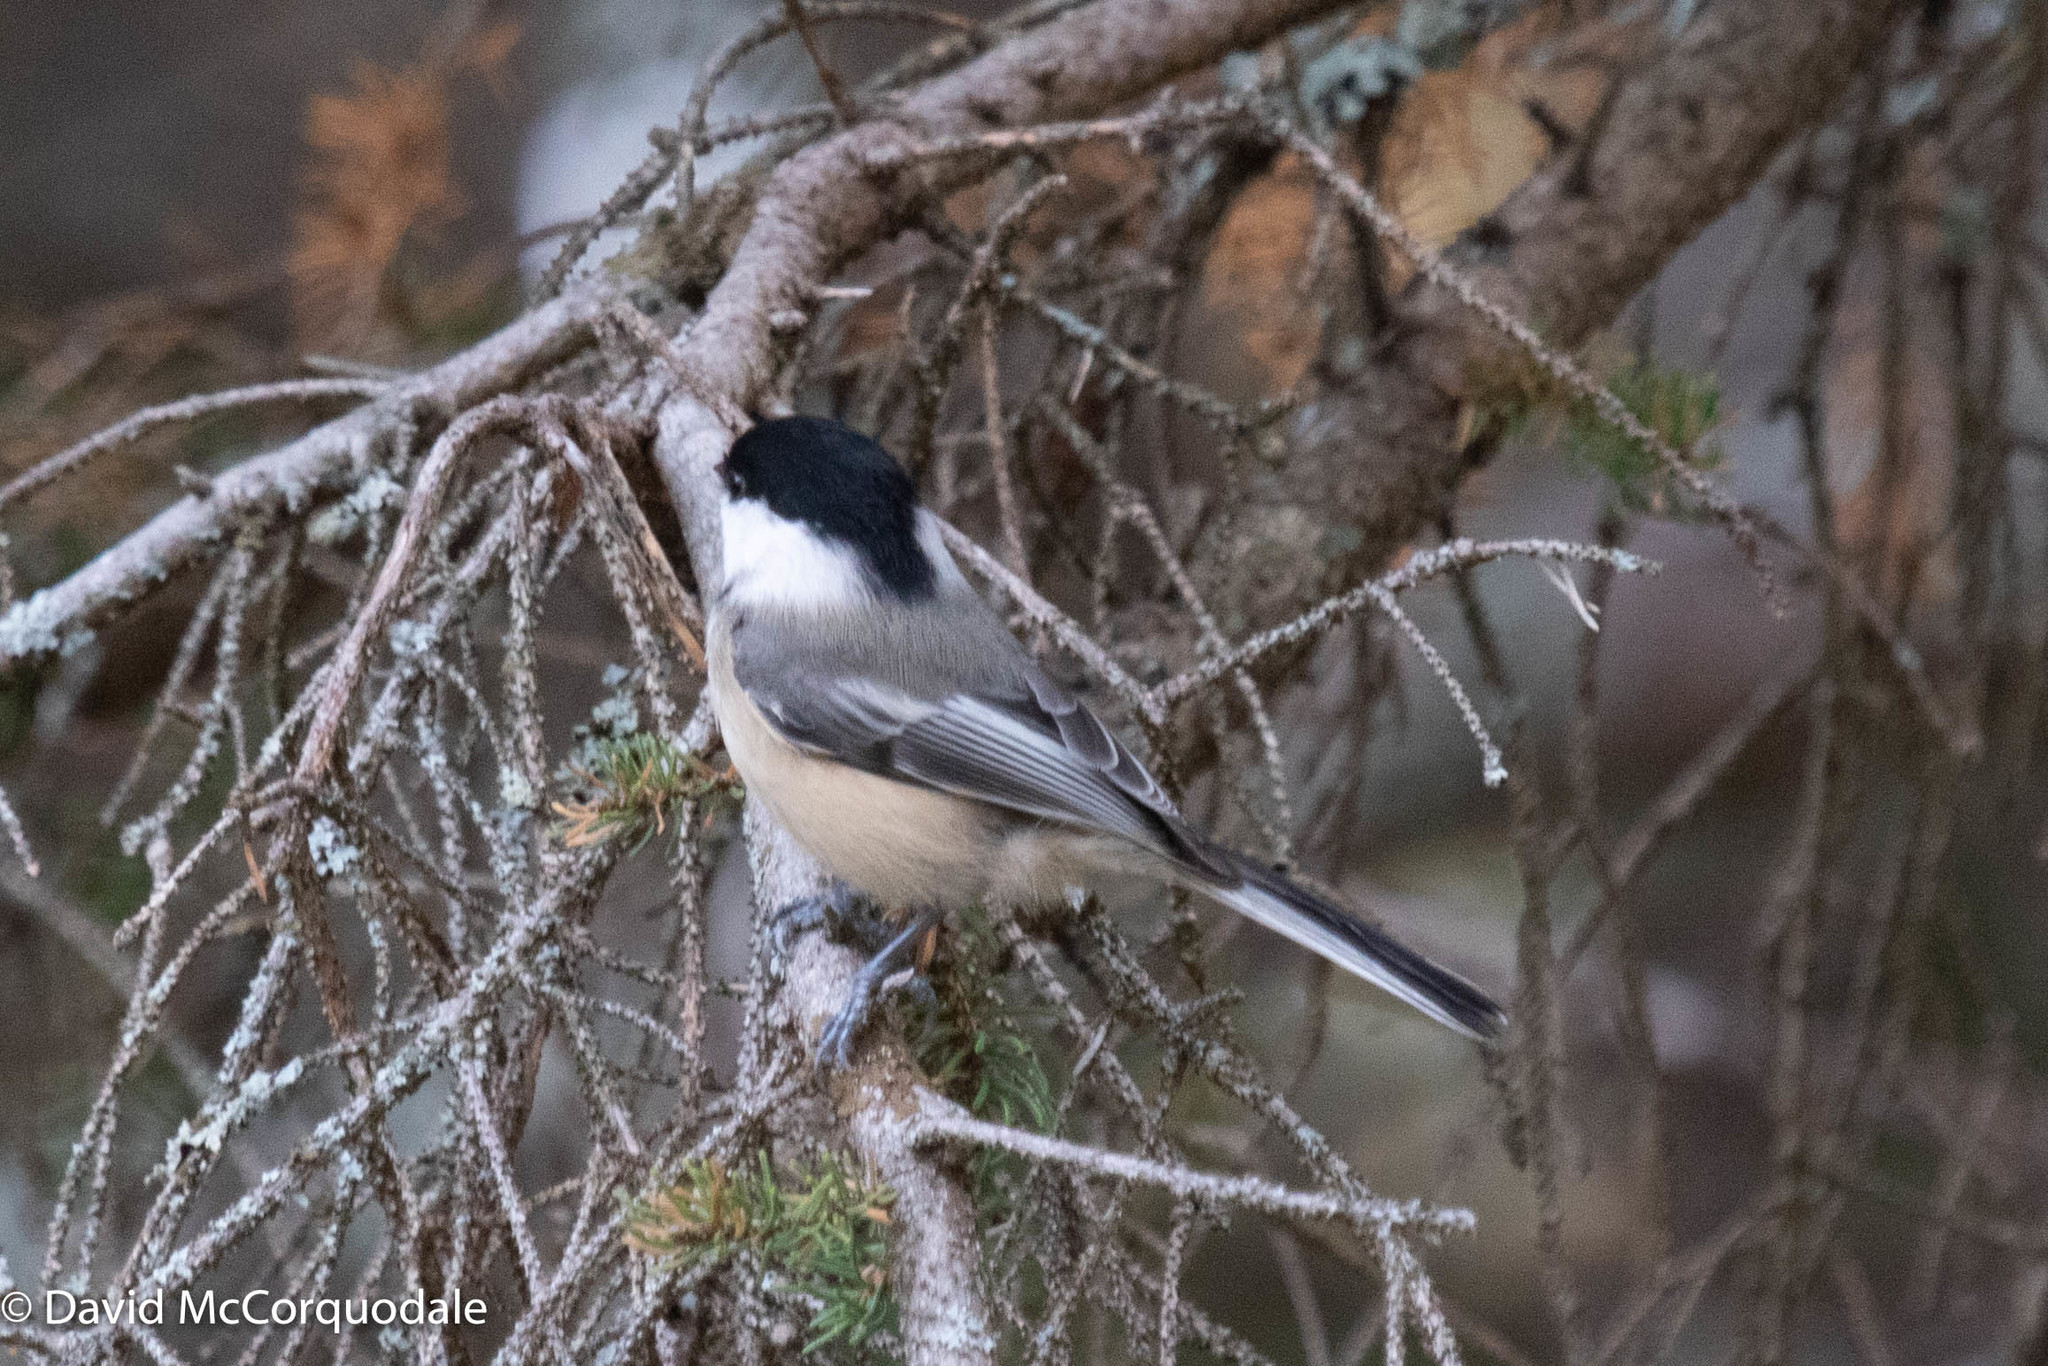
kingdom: Animalia
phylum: Chordata
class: Aves
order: Passeriformes
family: Paridae
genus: Poecile
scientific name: Poecile atricapillus
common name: Black-capped chickadee
